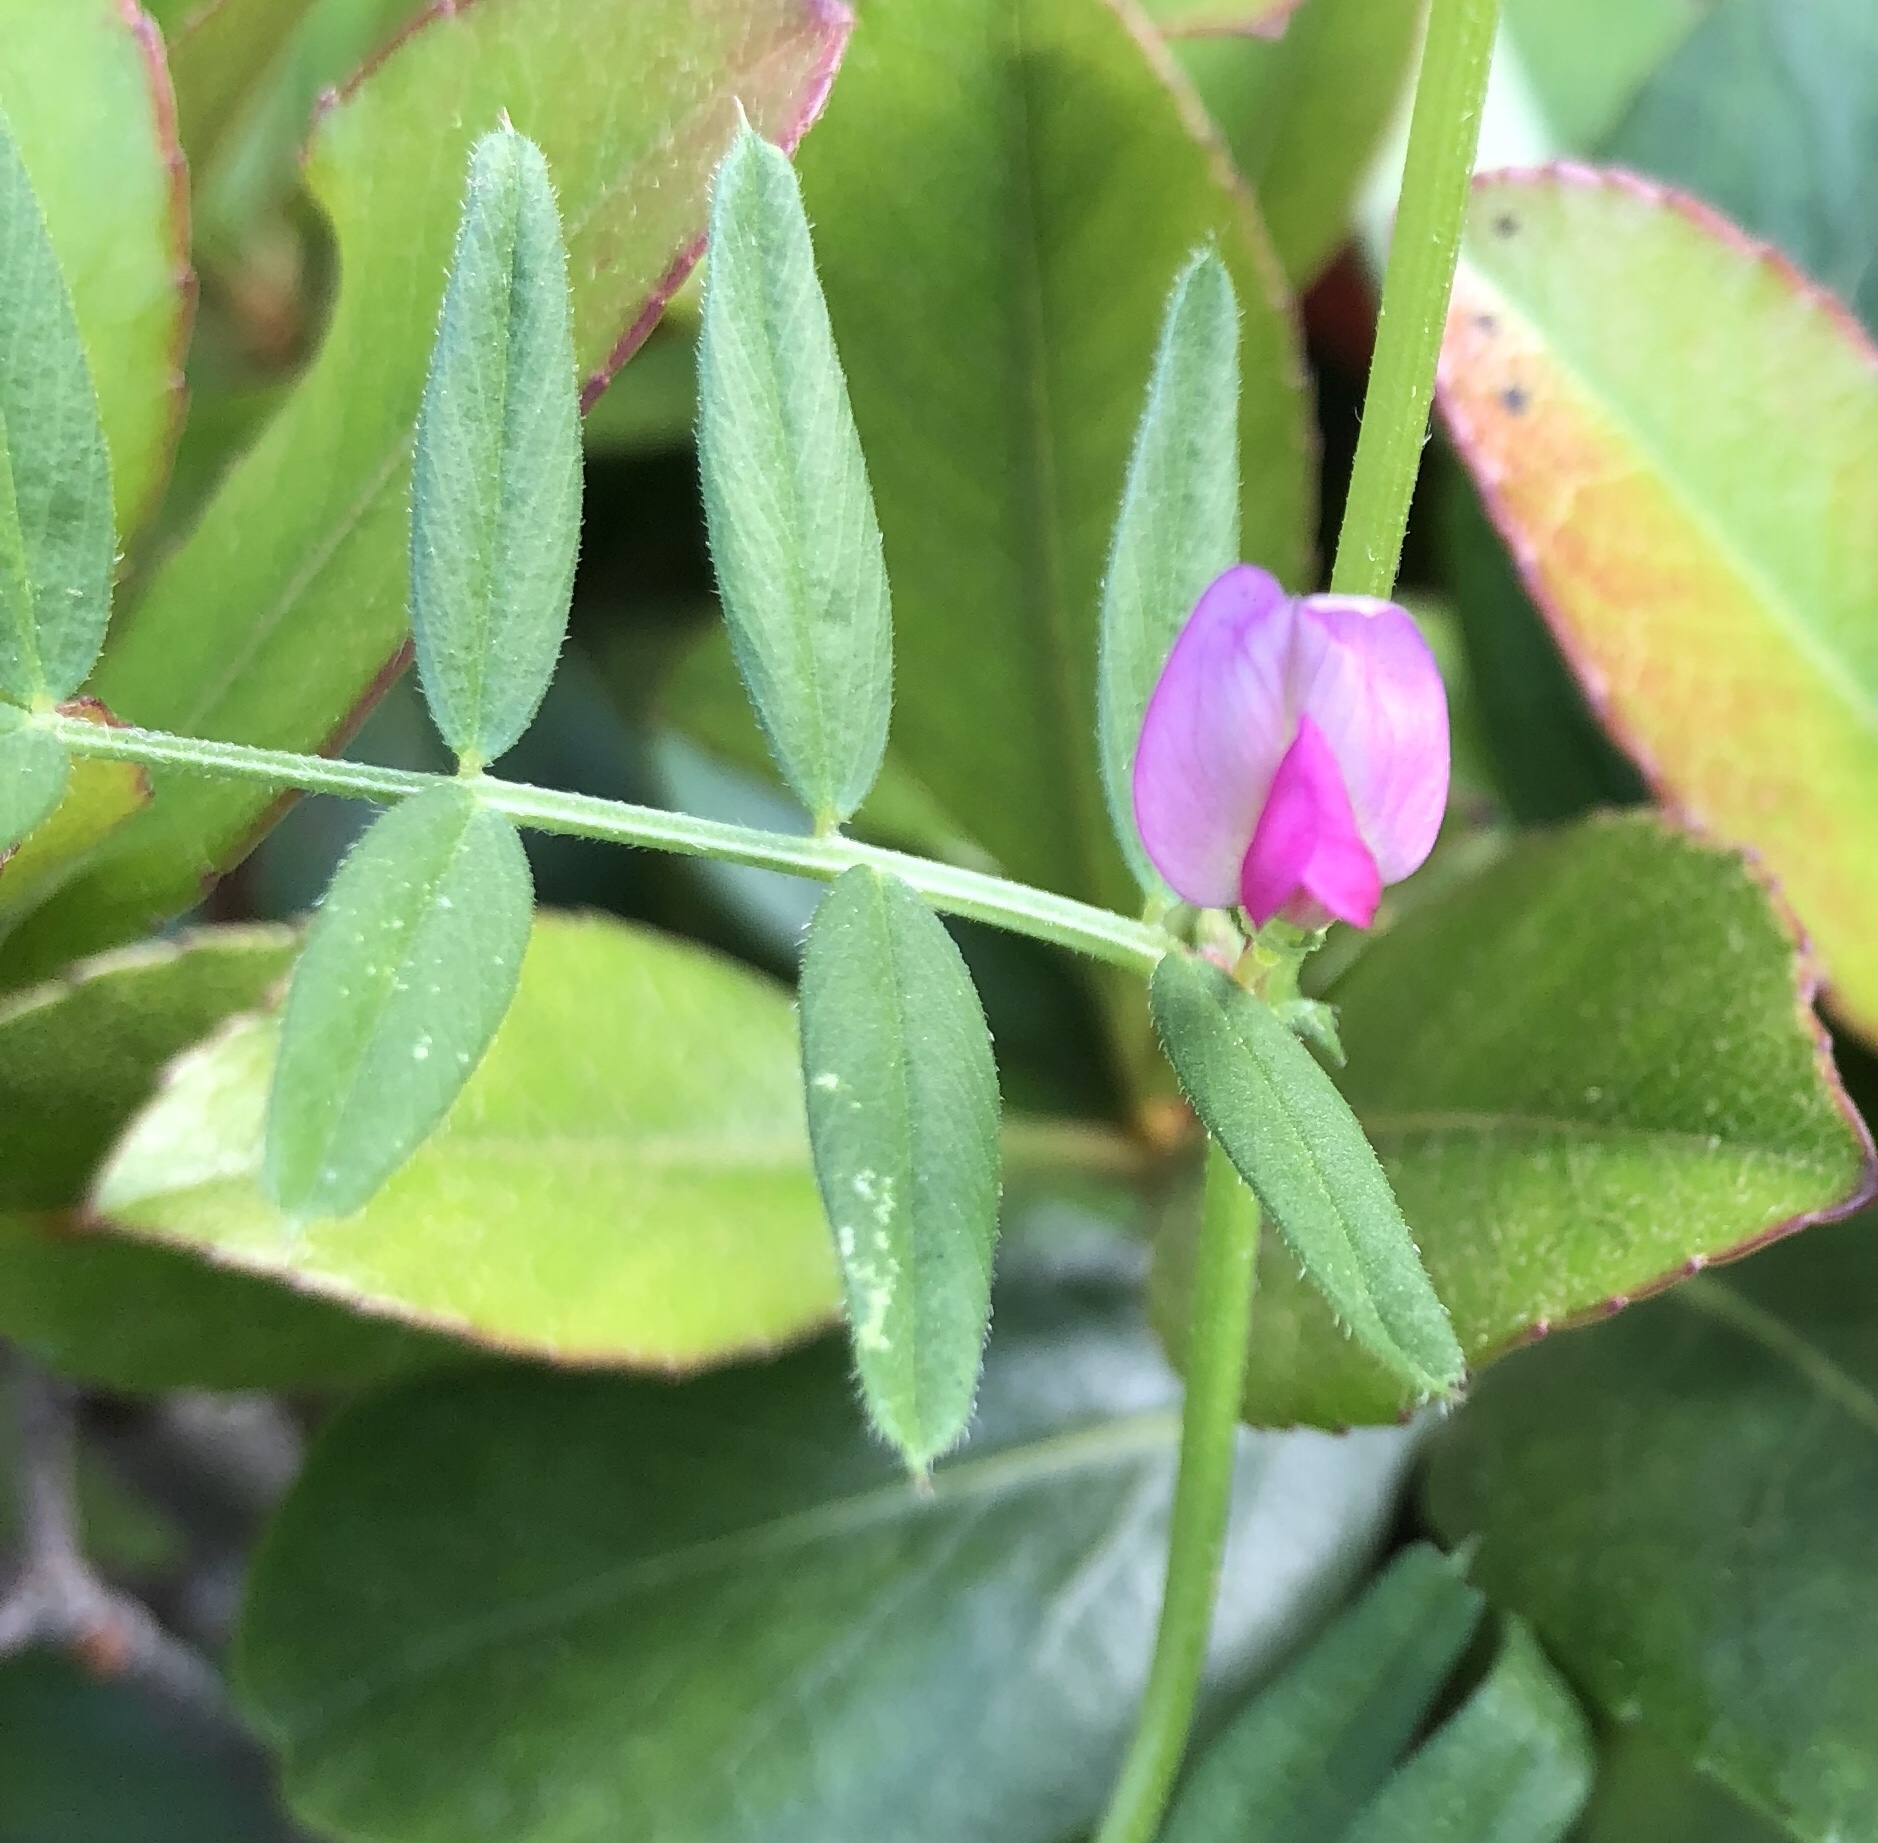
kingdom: Plantae
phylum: Tracheophyta
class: Magnoliopsida
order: Fabales
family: Fabaceae
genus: Vicia
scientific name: Vicia sativa
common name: Garden vetch
